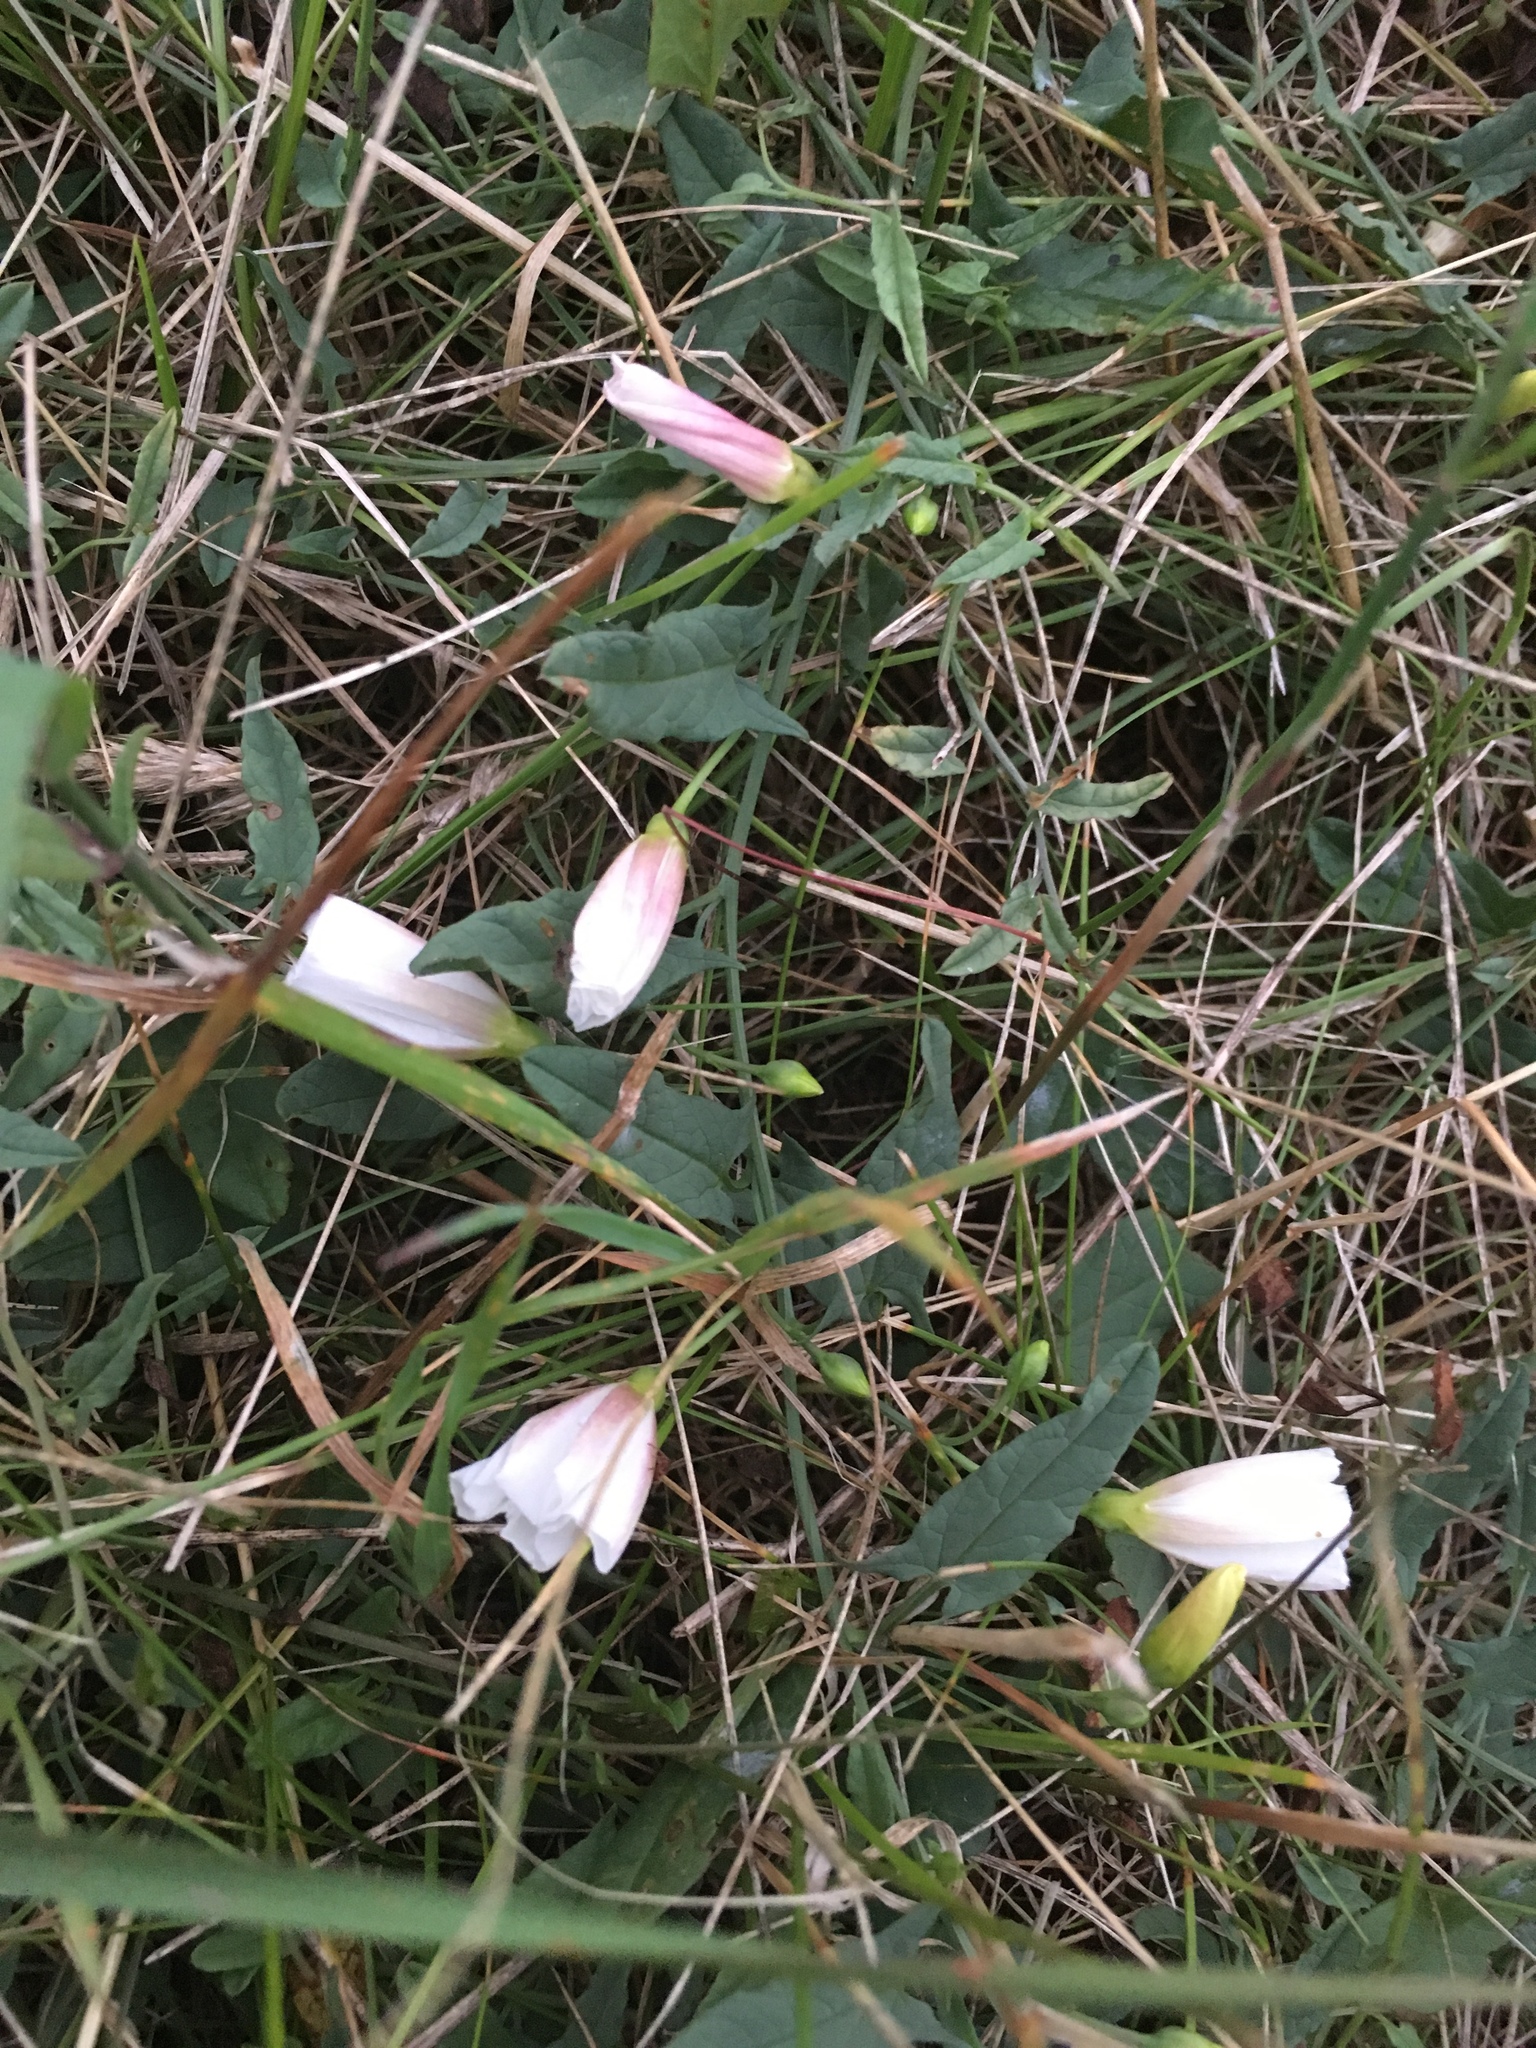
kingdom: Plantae
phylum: Tracheophyta
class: Magnoliopsida
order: Solanales
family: Convolvulaceae
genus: Convolvulus
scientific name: Convolvulus arvensis
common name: Field bindweed
